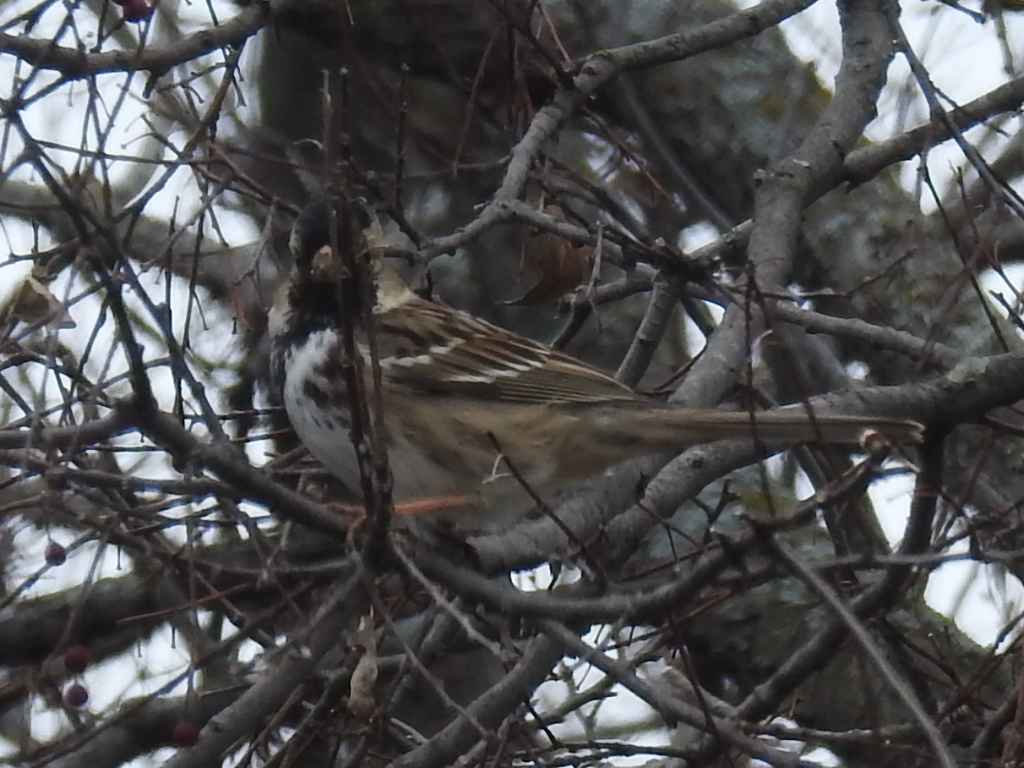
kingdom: Animalia
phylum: Chordata
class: Aves
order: Passeriformes
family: Passerellidae
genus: Zonotrichia
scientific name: Zonotrichia querula
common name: Harris's sparrow
